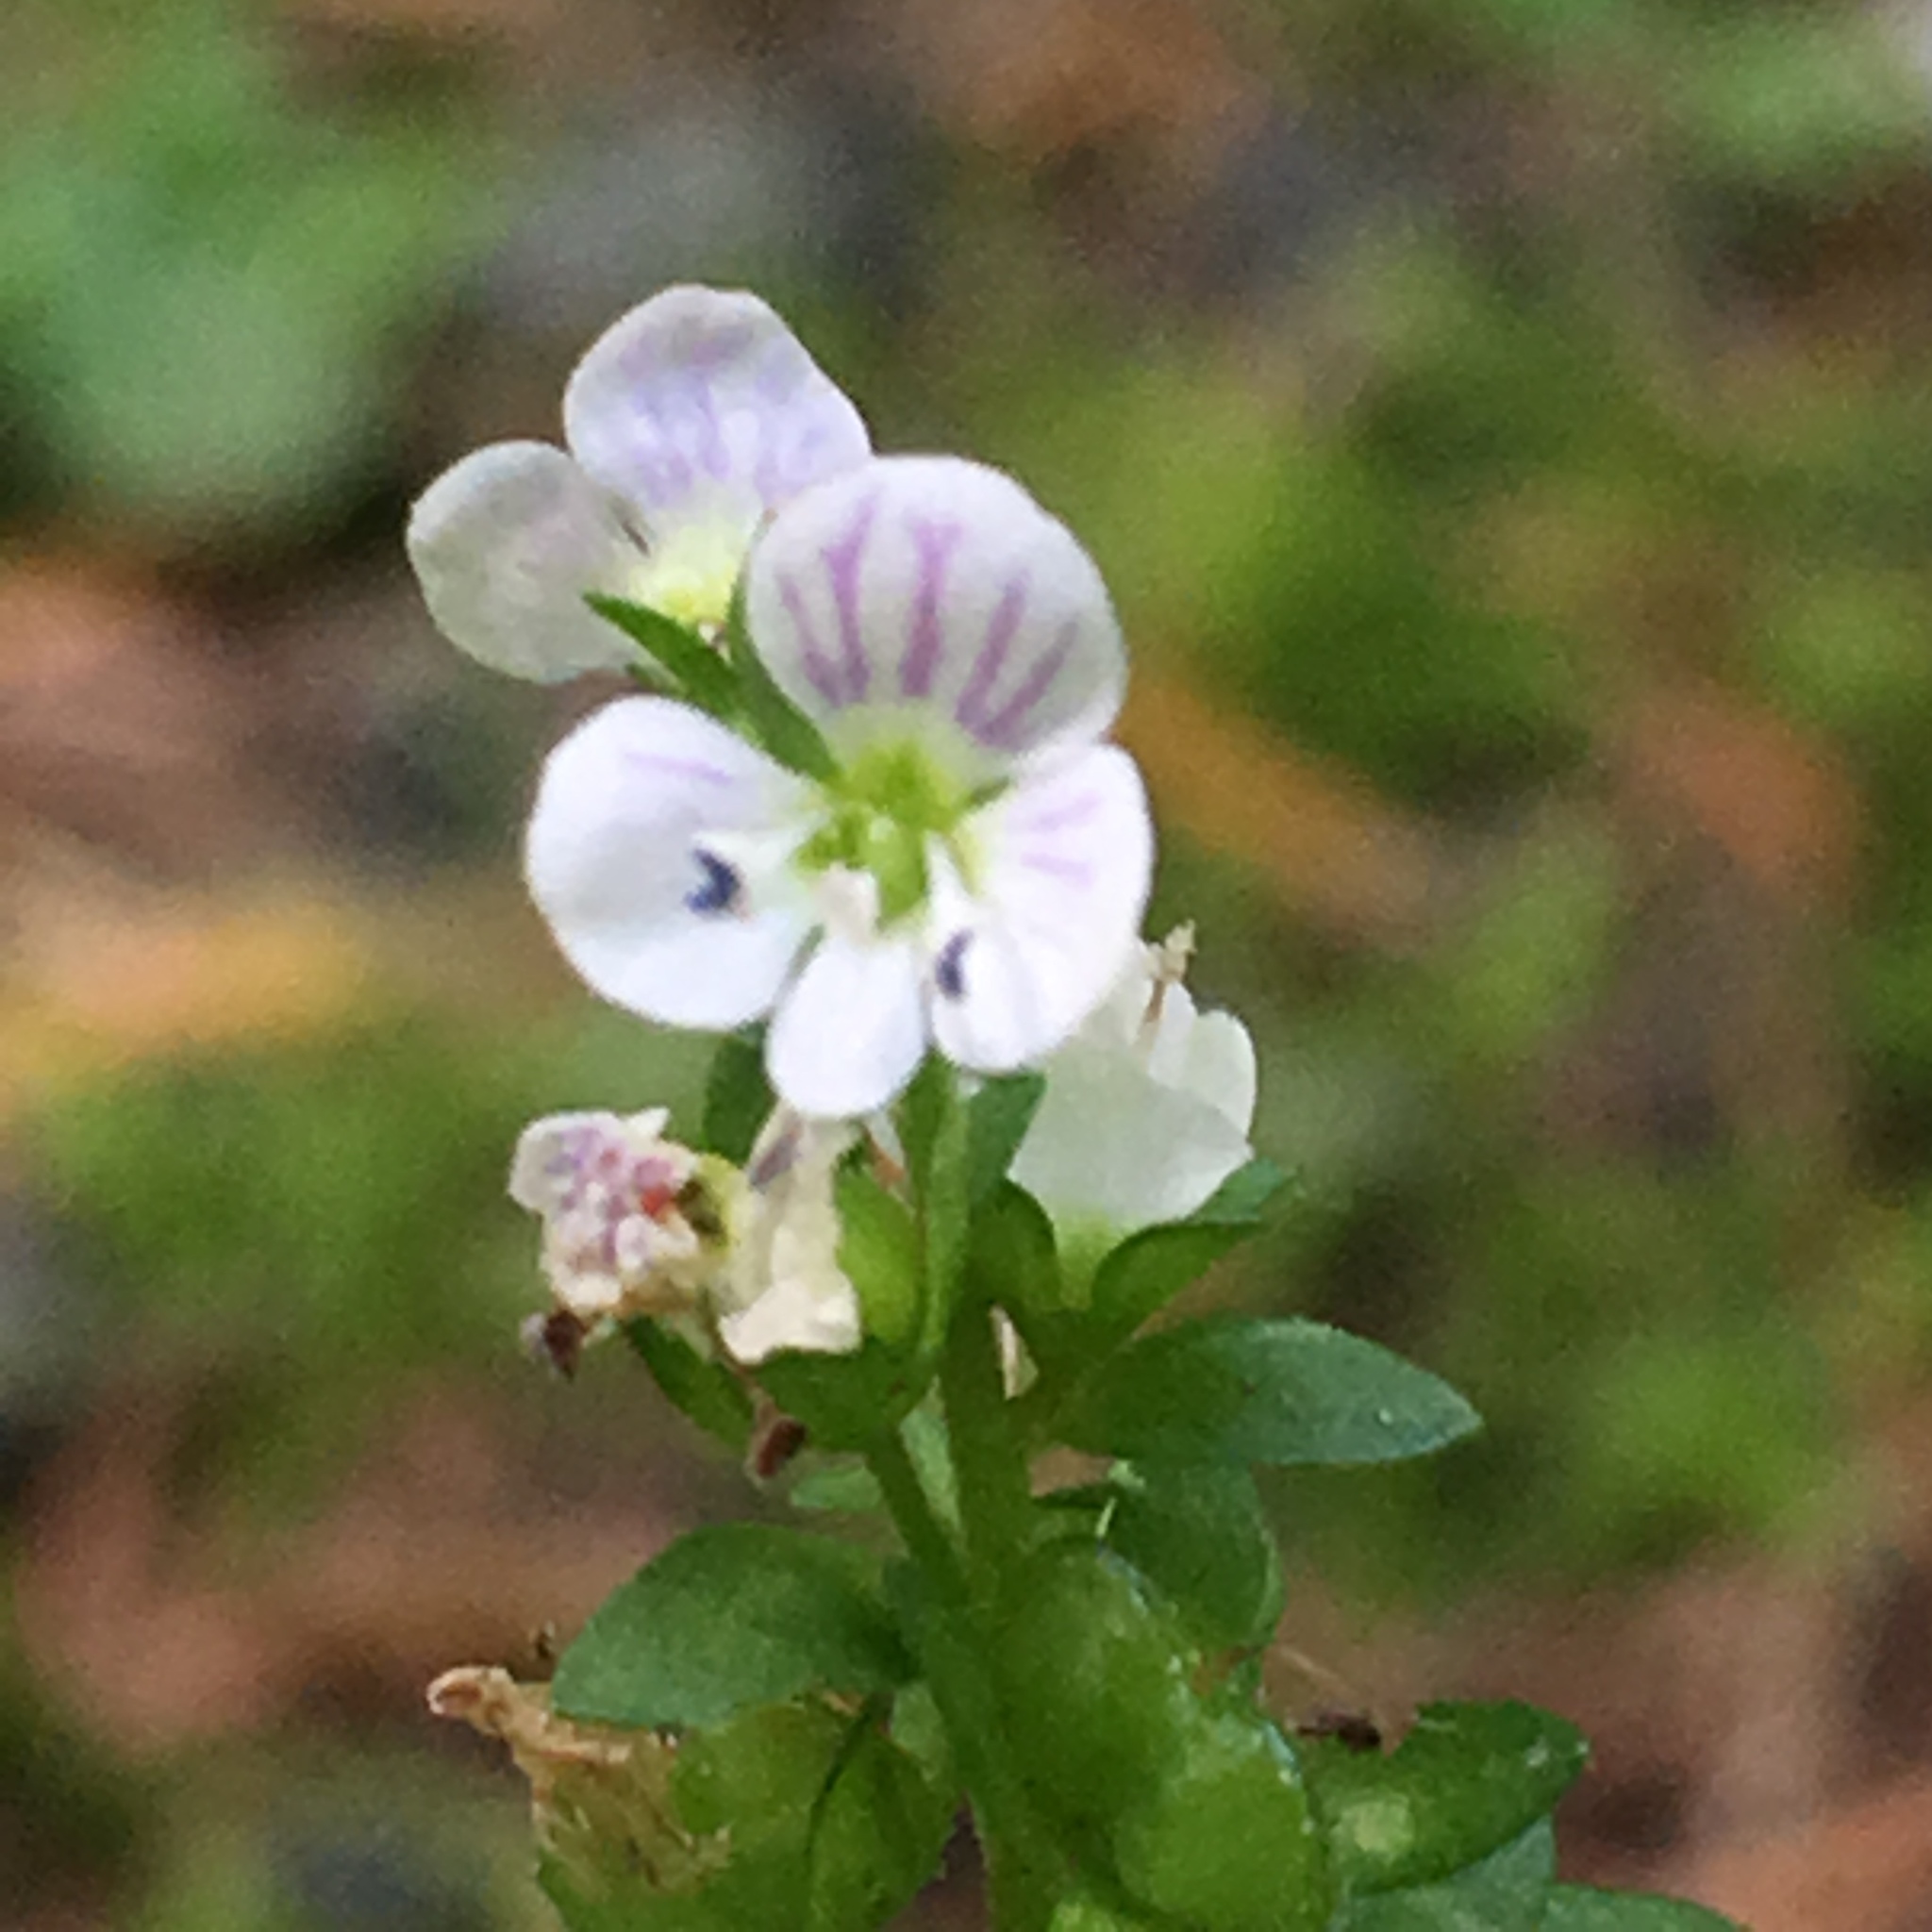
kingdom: Plantae
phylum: Tracheophyta
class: Magnoliopsida
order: Lamiales
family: Plantaginaceae
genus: Veronica
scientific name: Veronica serpyllifolia
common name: Thyme-leaved speedwell
